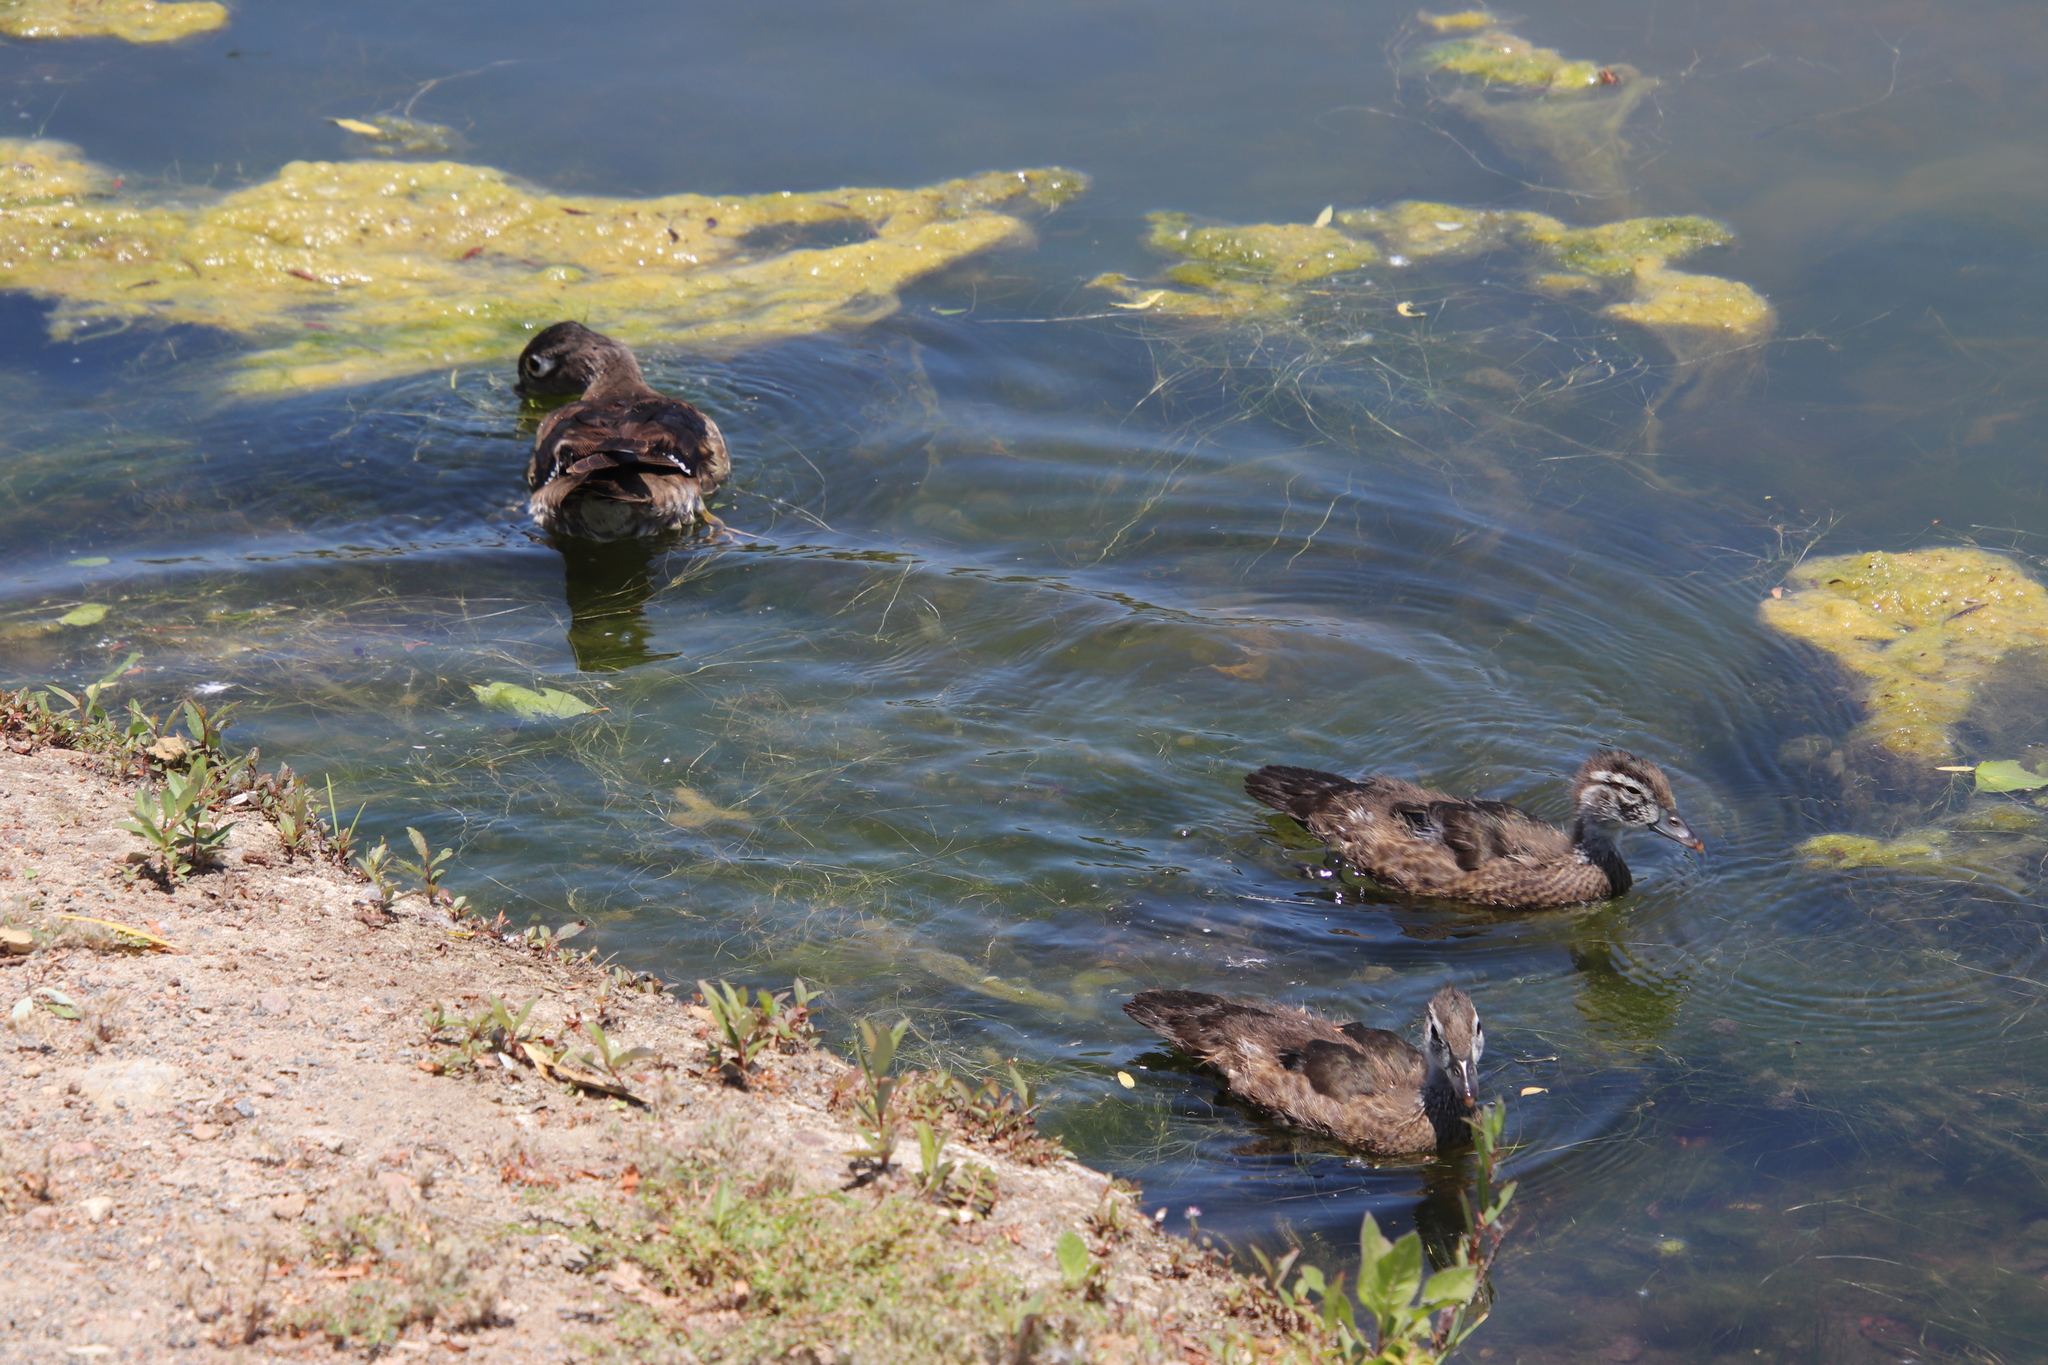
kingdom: Animalia
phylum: Chordata
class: Aves
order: Anseriformes
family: Anatidae
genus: Aix
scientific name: Aix sponsa
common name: Wood duck
